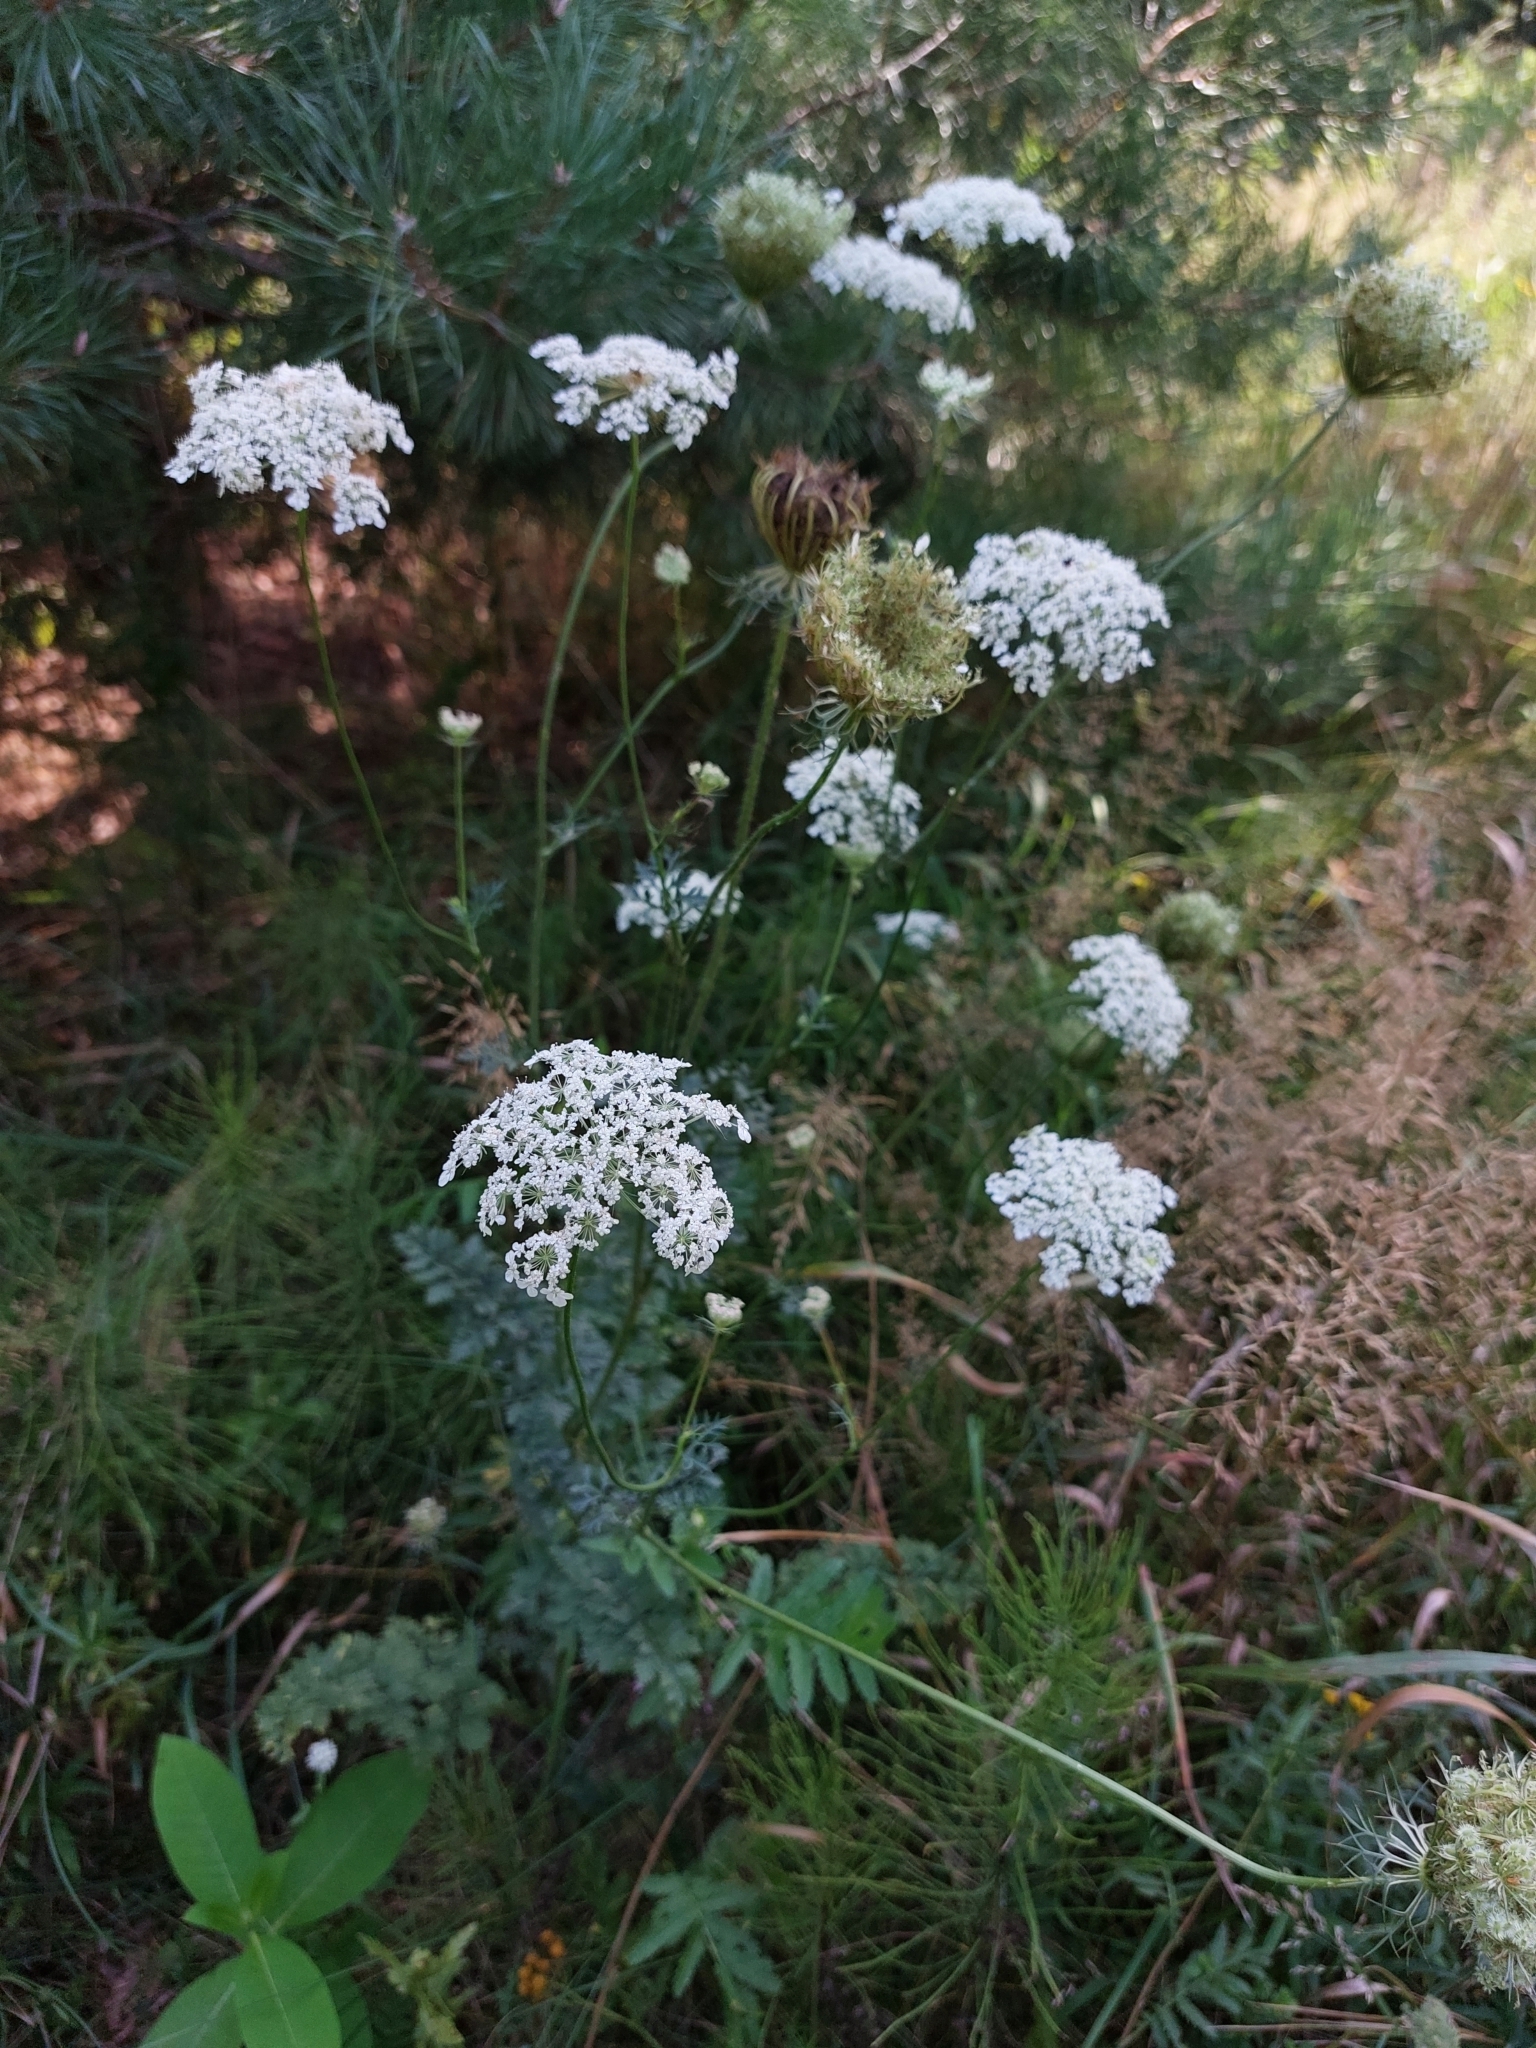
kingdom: Plantae
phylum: Tracheophyta
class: Magnoliopsida
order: Apiales
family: Apiaceae
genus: Daucus
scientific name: Daucus carota
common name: Wild carrot
